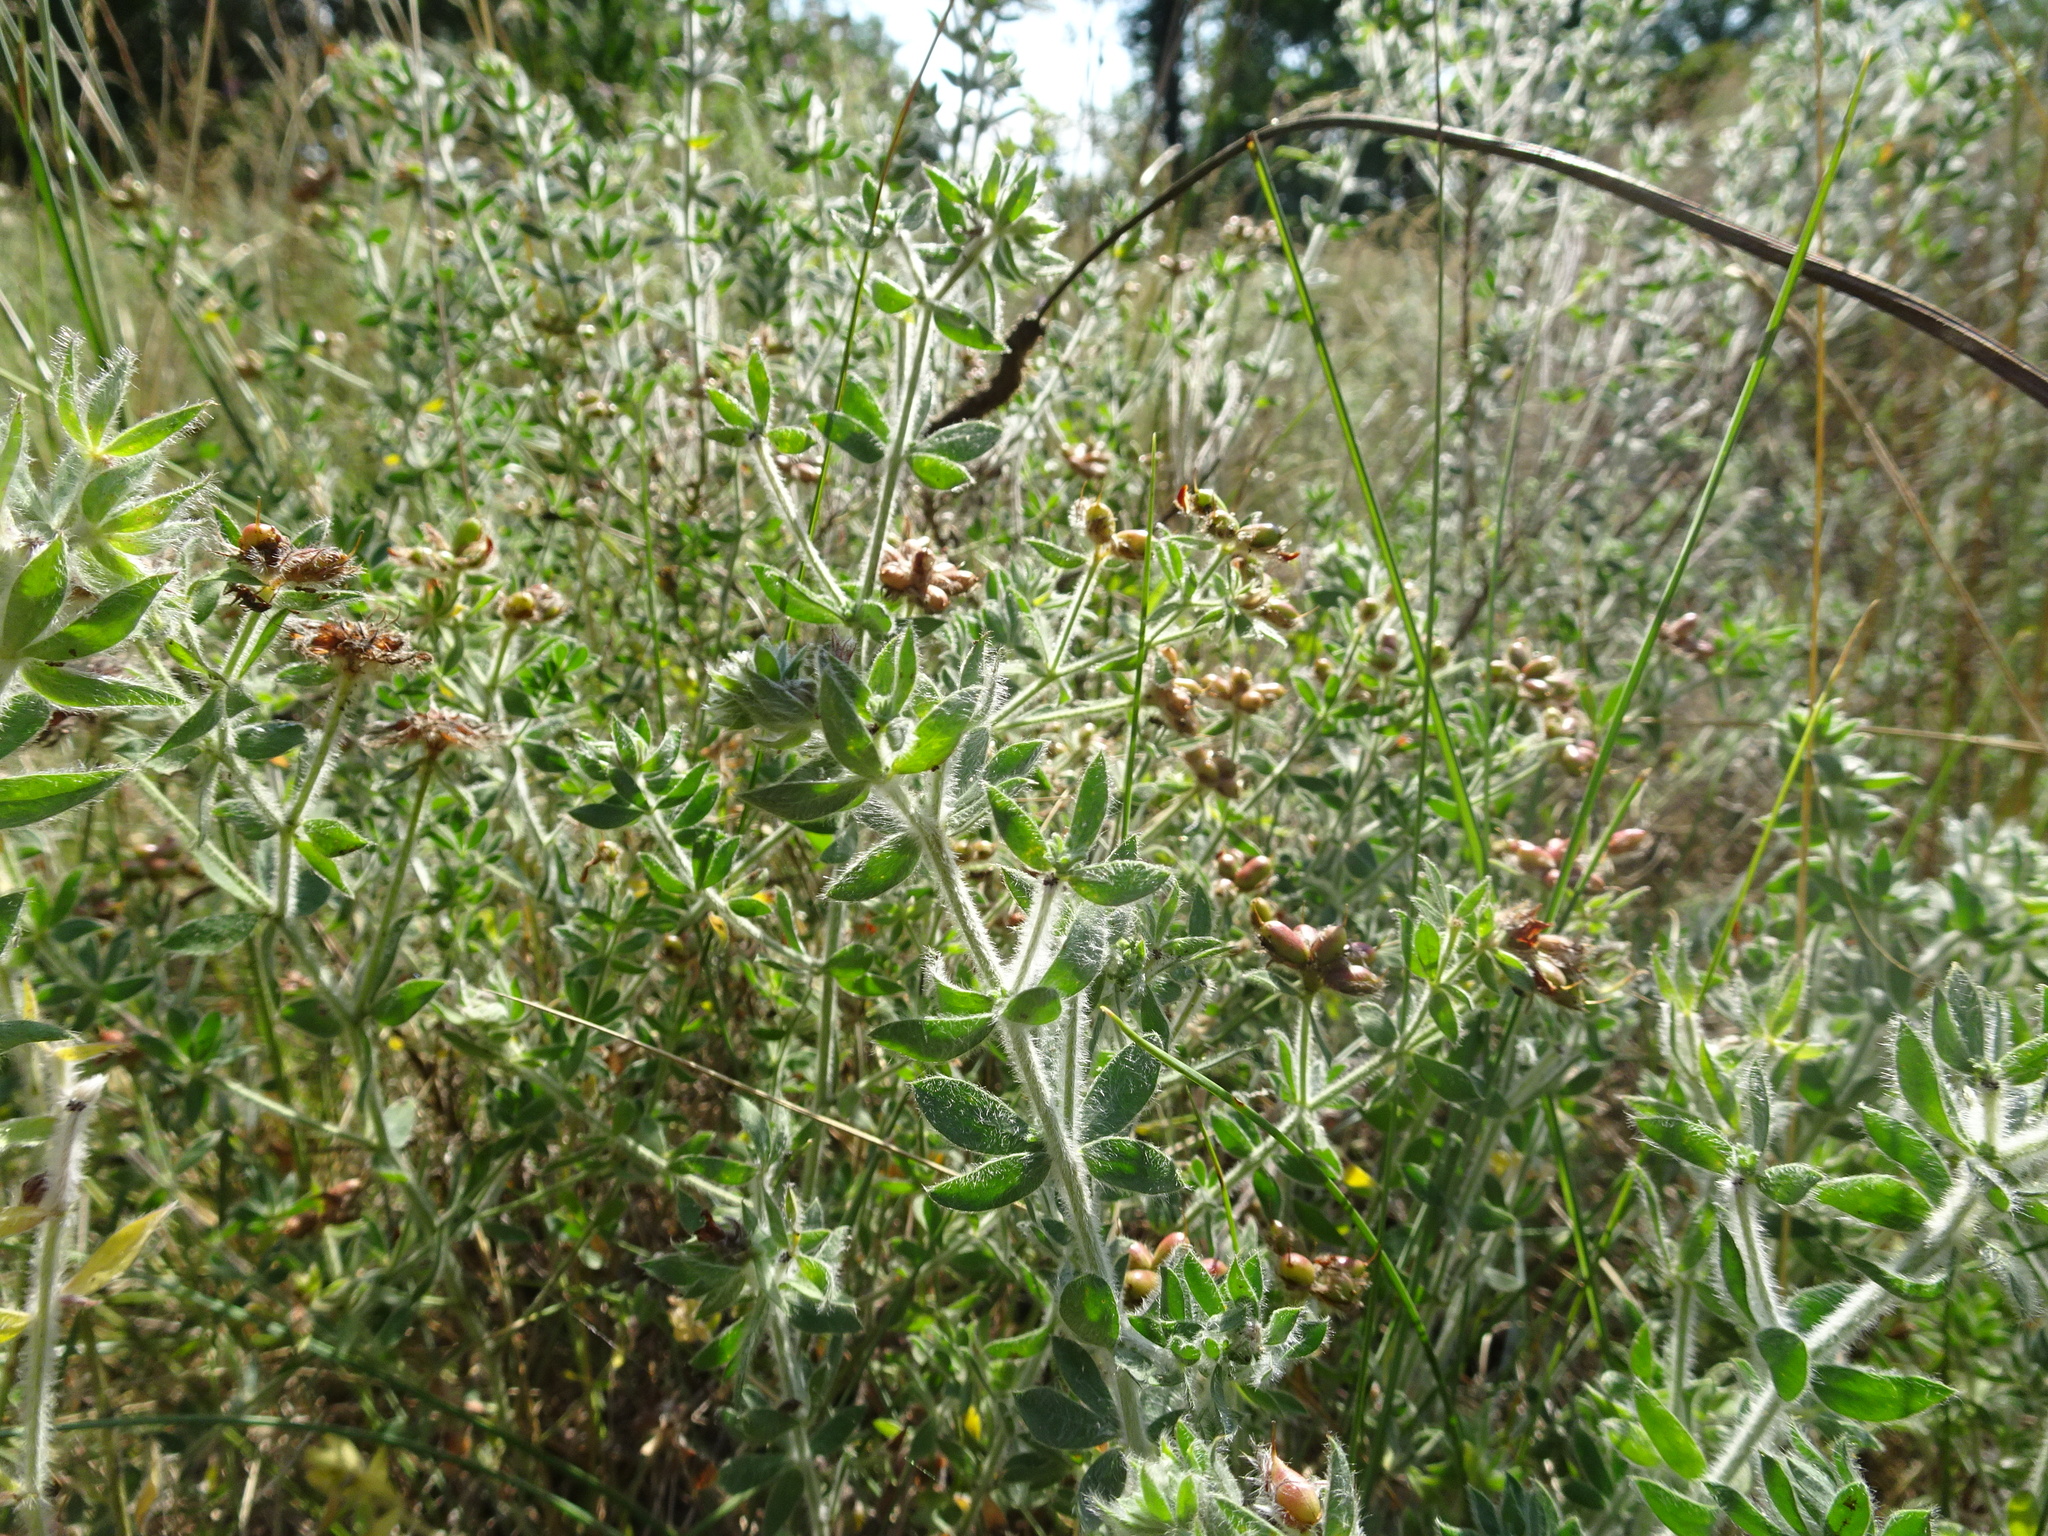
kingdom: Plantae
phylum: Tracheophyta
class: Magnoliopsida
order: Fabales
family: Fabaceae
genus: Lotus
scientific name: Lotus hirsutus
